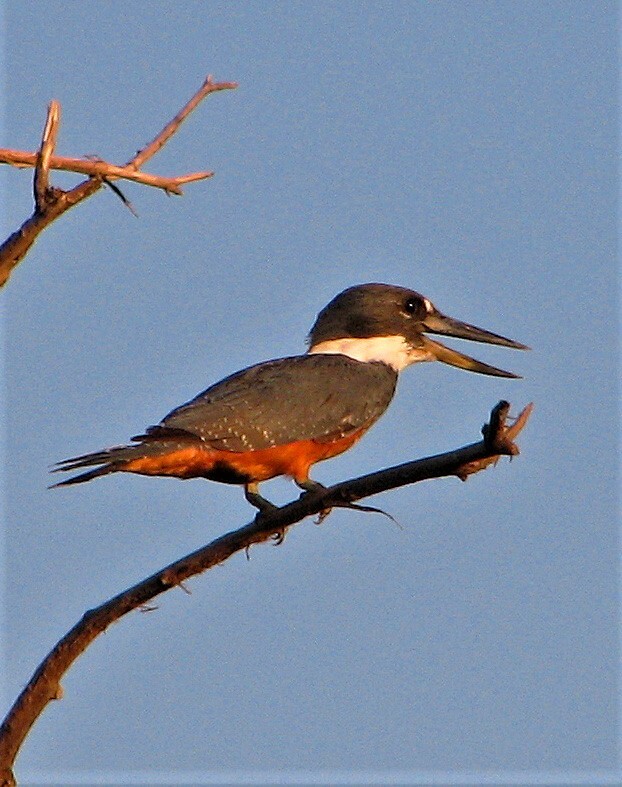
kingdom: Animalia
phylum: Chordata
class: Aves
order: Coraciiformes
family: Alcedinidae
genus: Megaceryle
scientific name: Megaceryle torquata
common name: Ringed kingfisher
